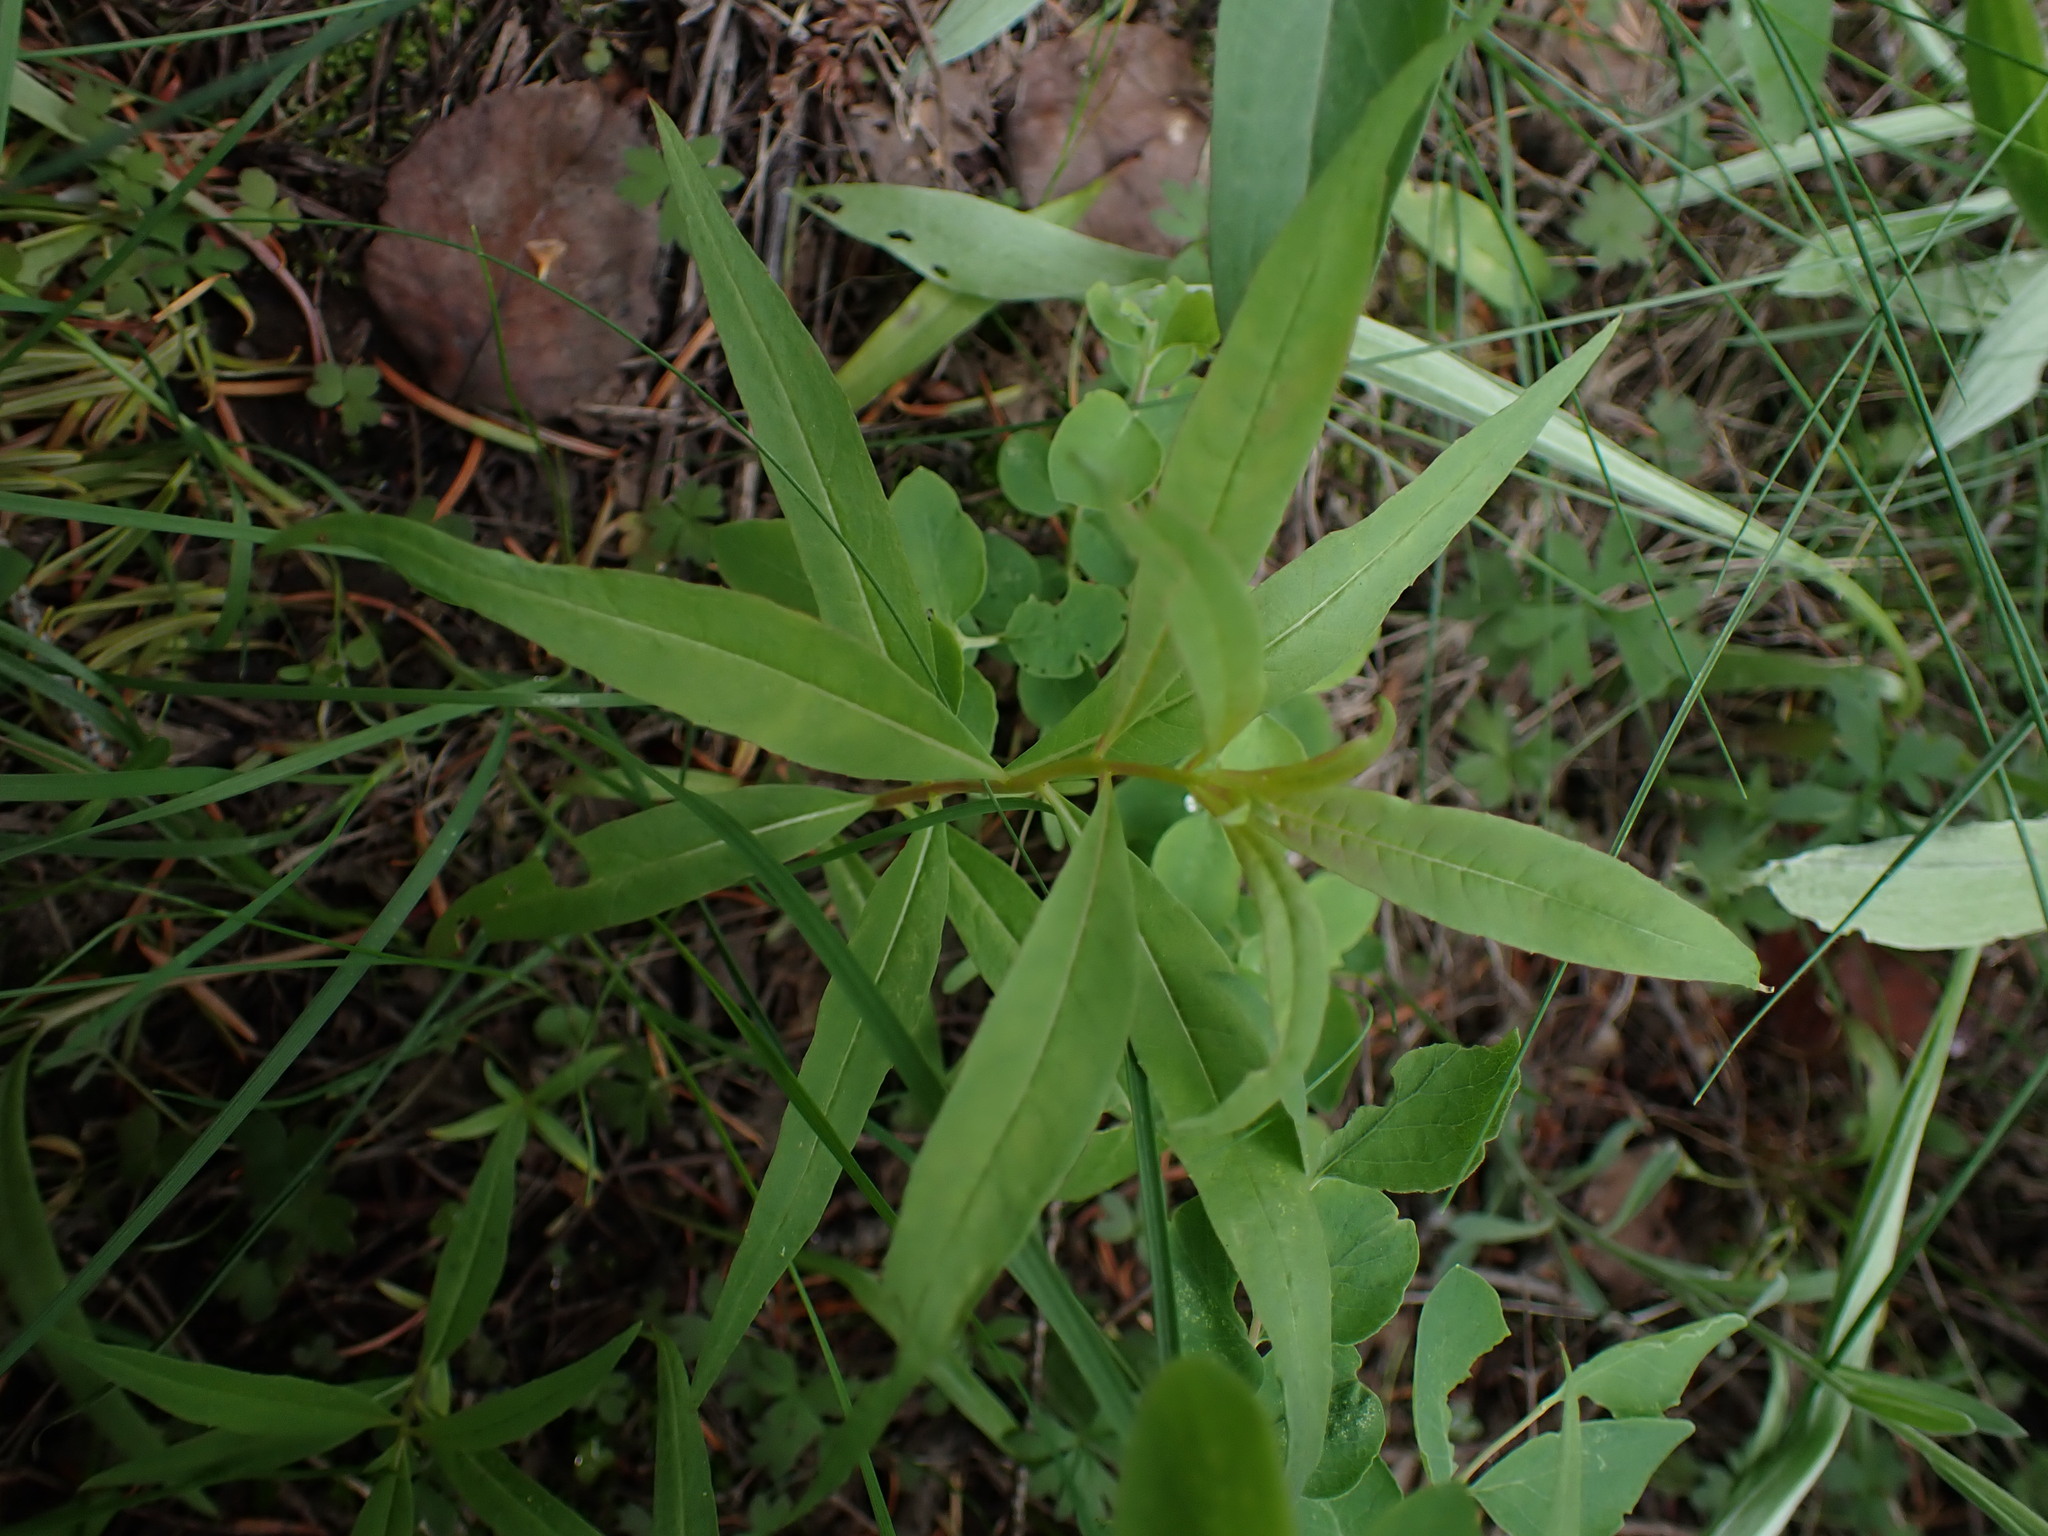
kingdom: Plantae
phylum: Tracheophyta
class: Magnoliopsida
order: Myrtales
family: Onagraceae
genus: Chamaenerion
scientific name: Chamaenerion angustifolium
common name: Fireweed
